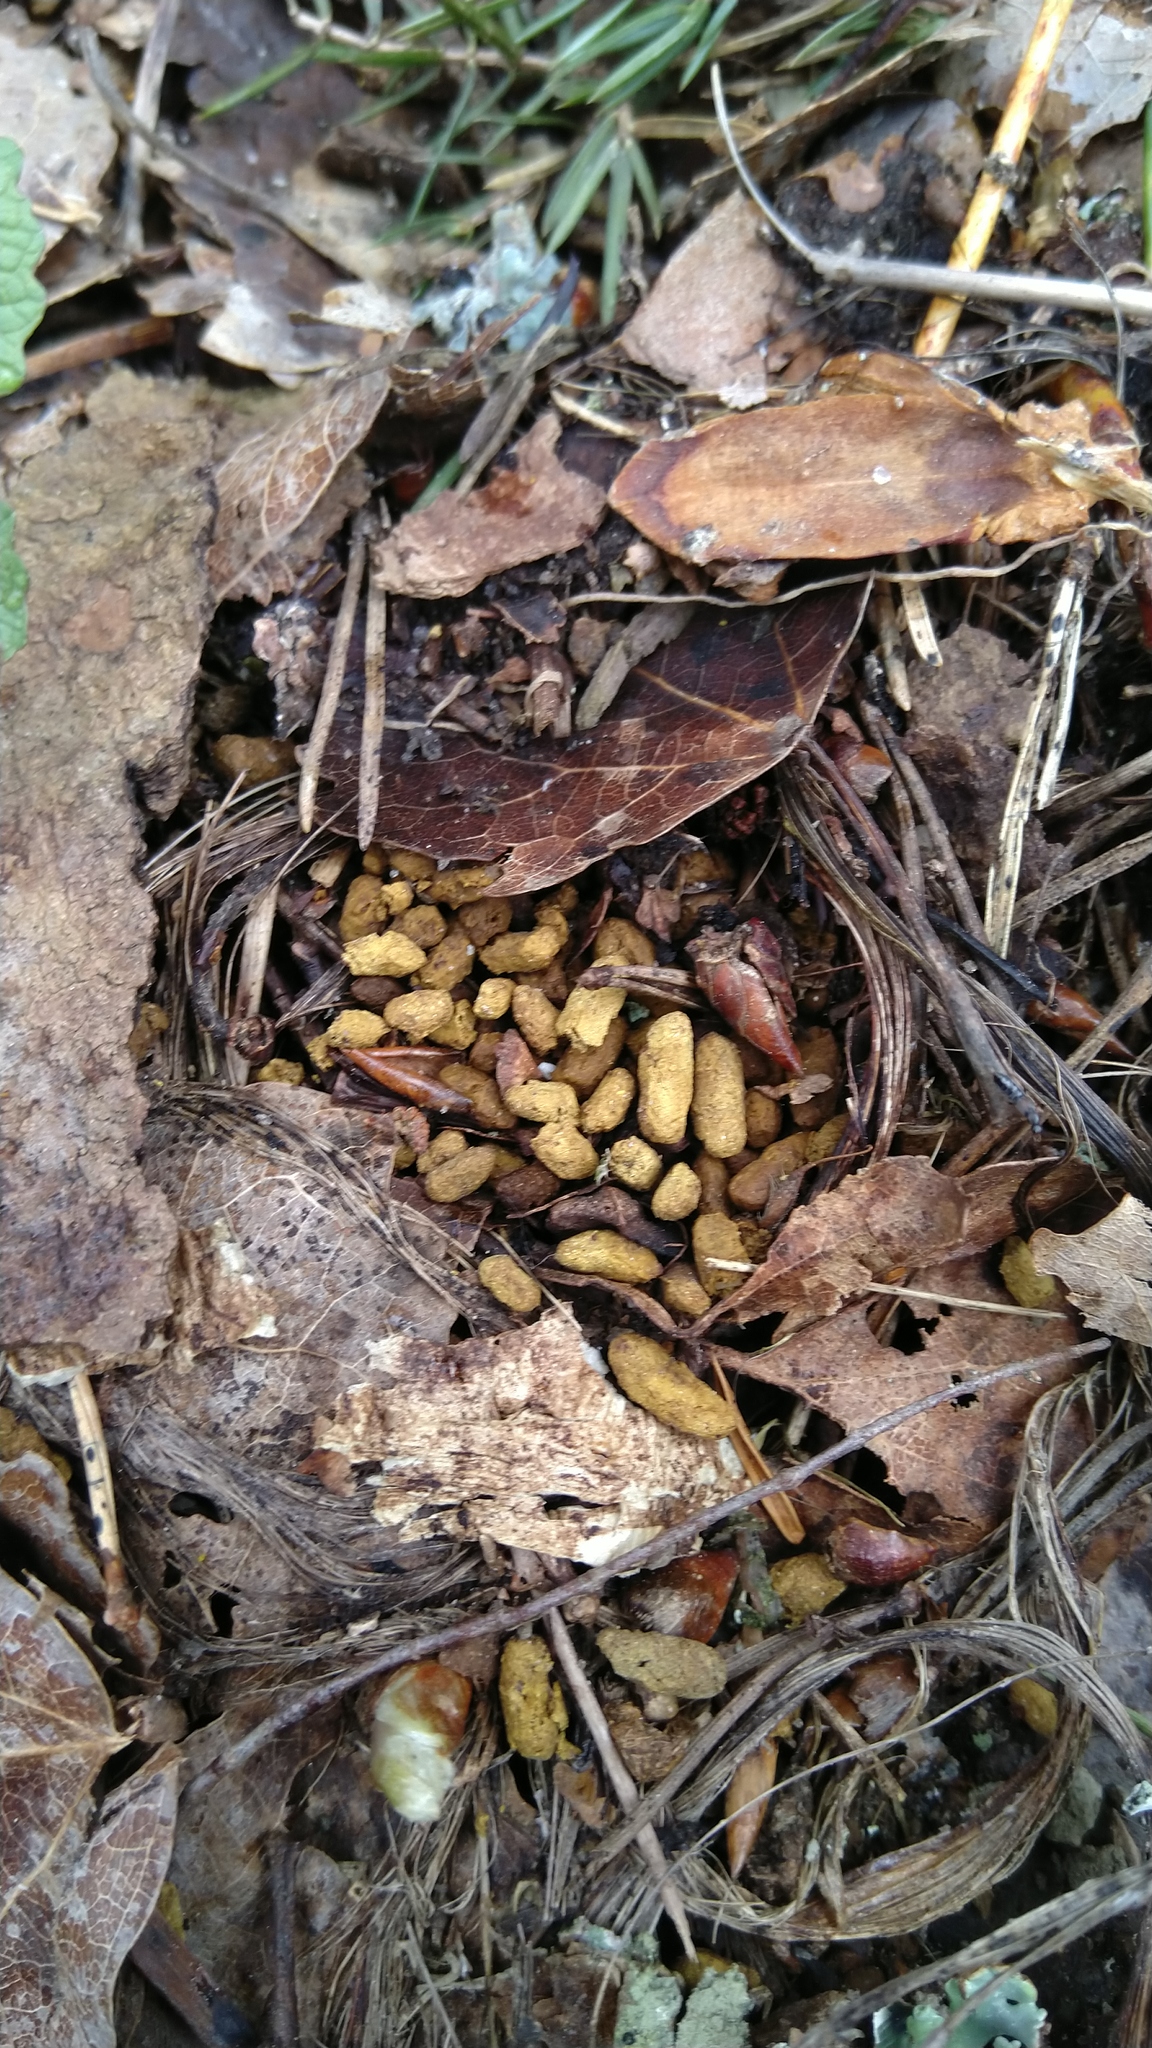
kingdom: Animalia
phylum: Chordata
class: Mammalia
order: Rodentia
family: Sciuridae
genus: Pteromys
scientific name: Pteromys volans
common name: Siberian flying squirrel
